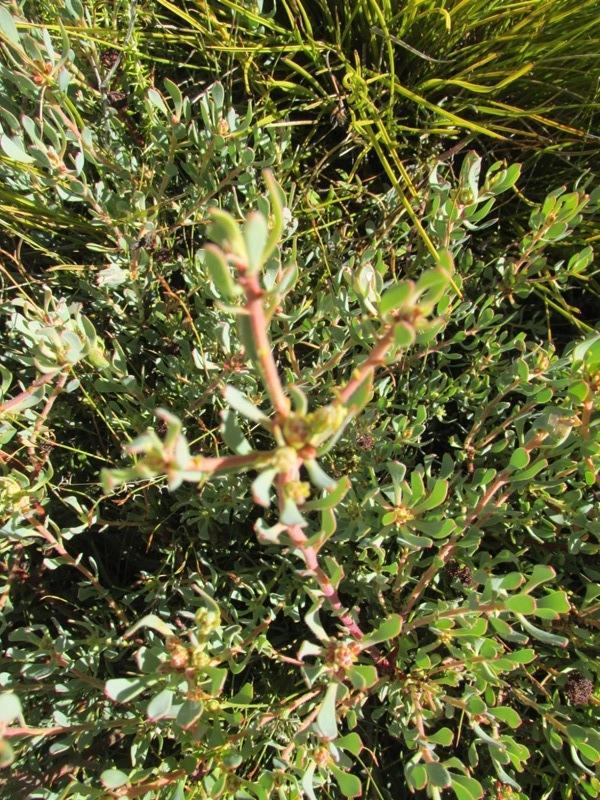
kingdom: Plantae
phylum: Tracheophyta
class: Magnoliopsida
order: Proteales
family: Proteaceae
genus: Leucadendron
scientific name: Leucadendron glaberrimum
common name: Common oily conebush
